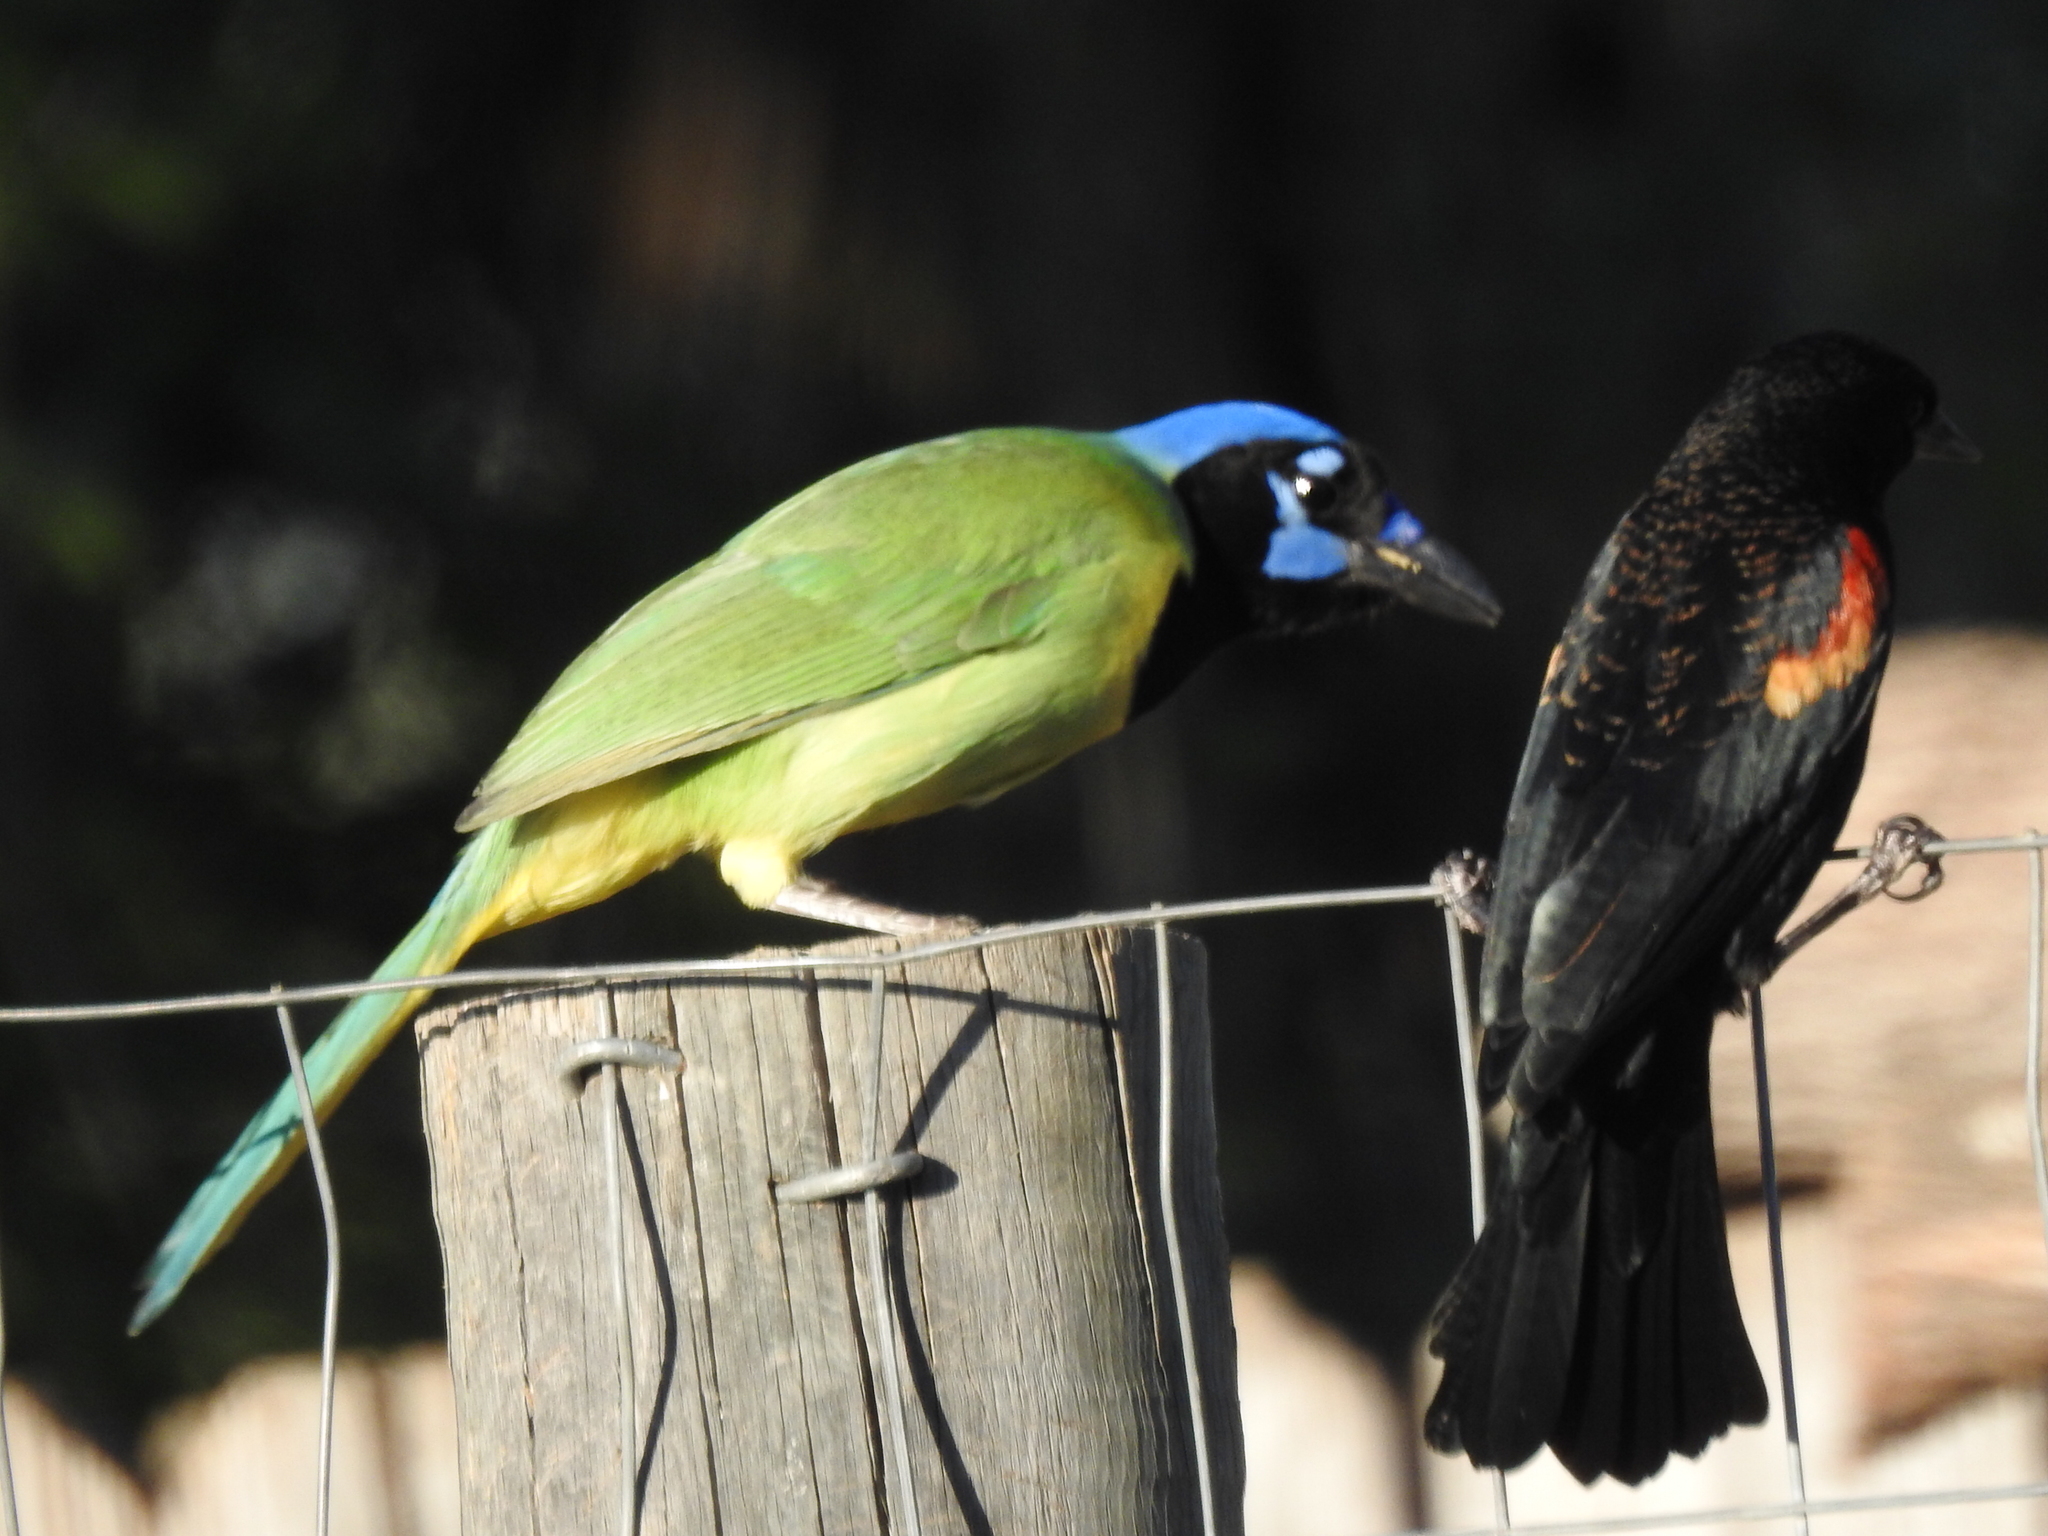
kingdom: Animalia
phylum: Chordata
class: Aves
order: Passeriformes
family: Corvidae
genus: Cyanocorax
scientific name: Cyanocorax yncas
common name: Green jay
